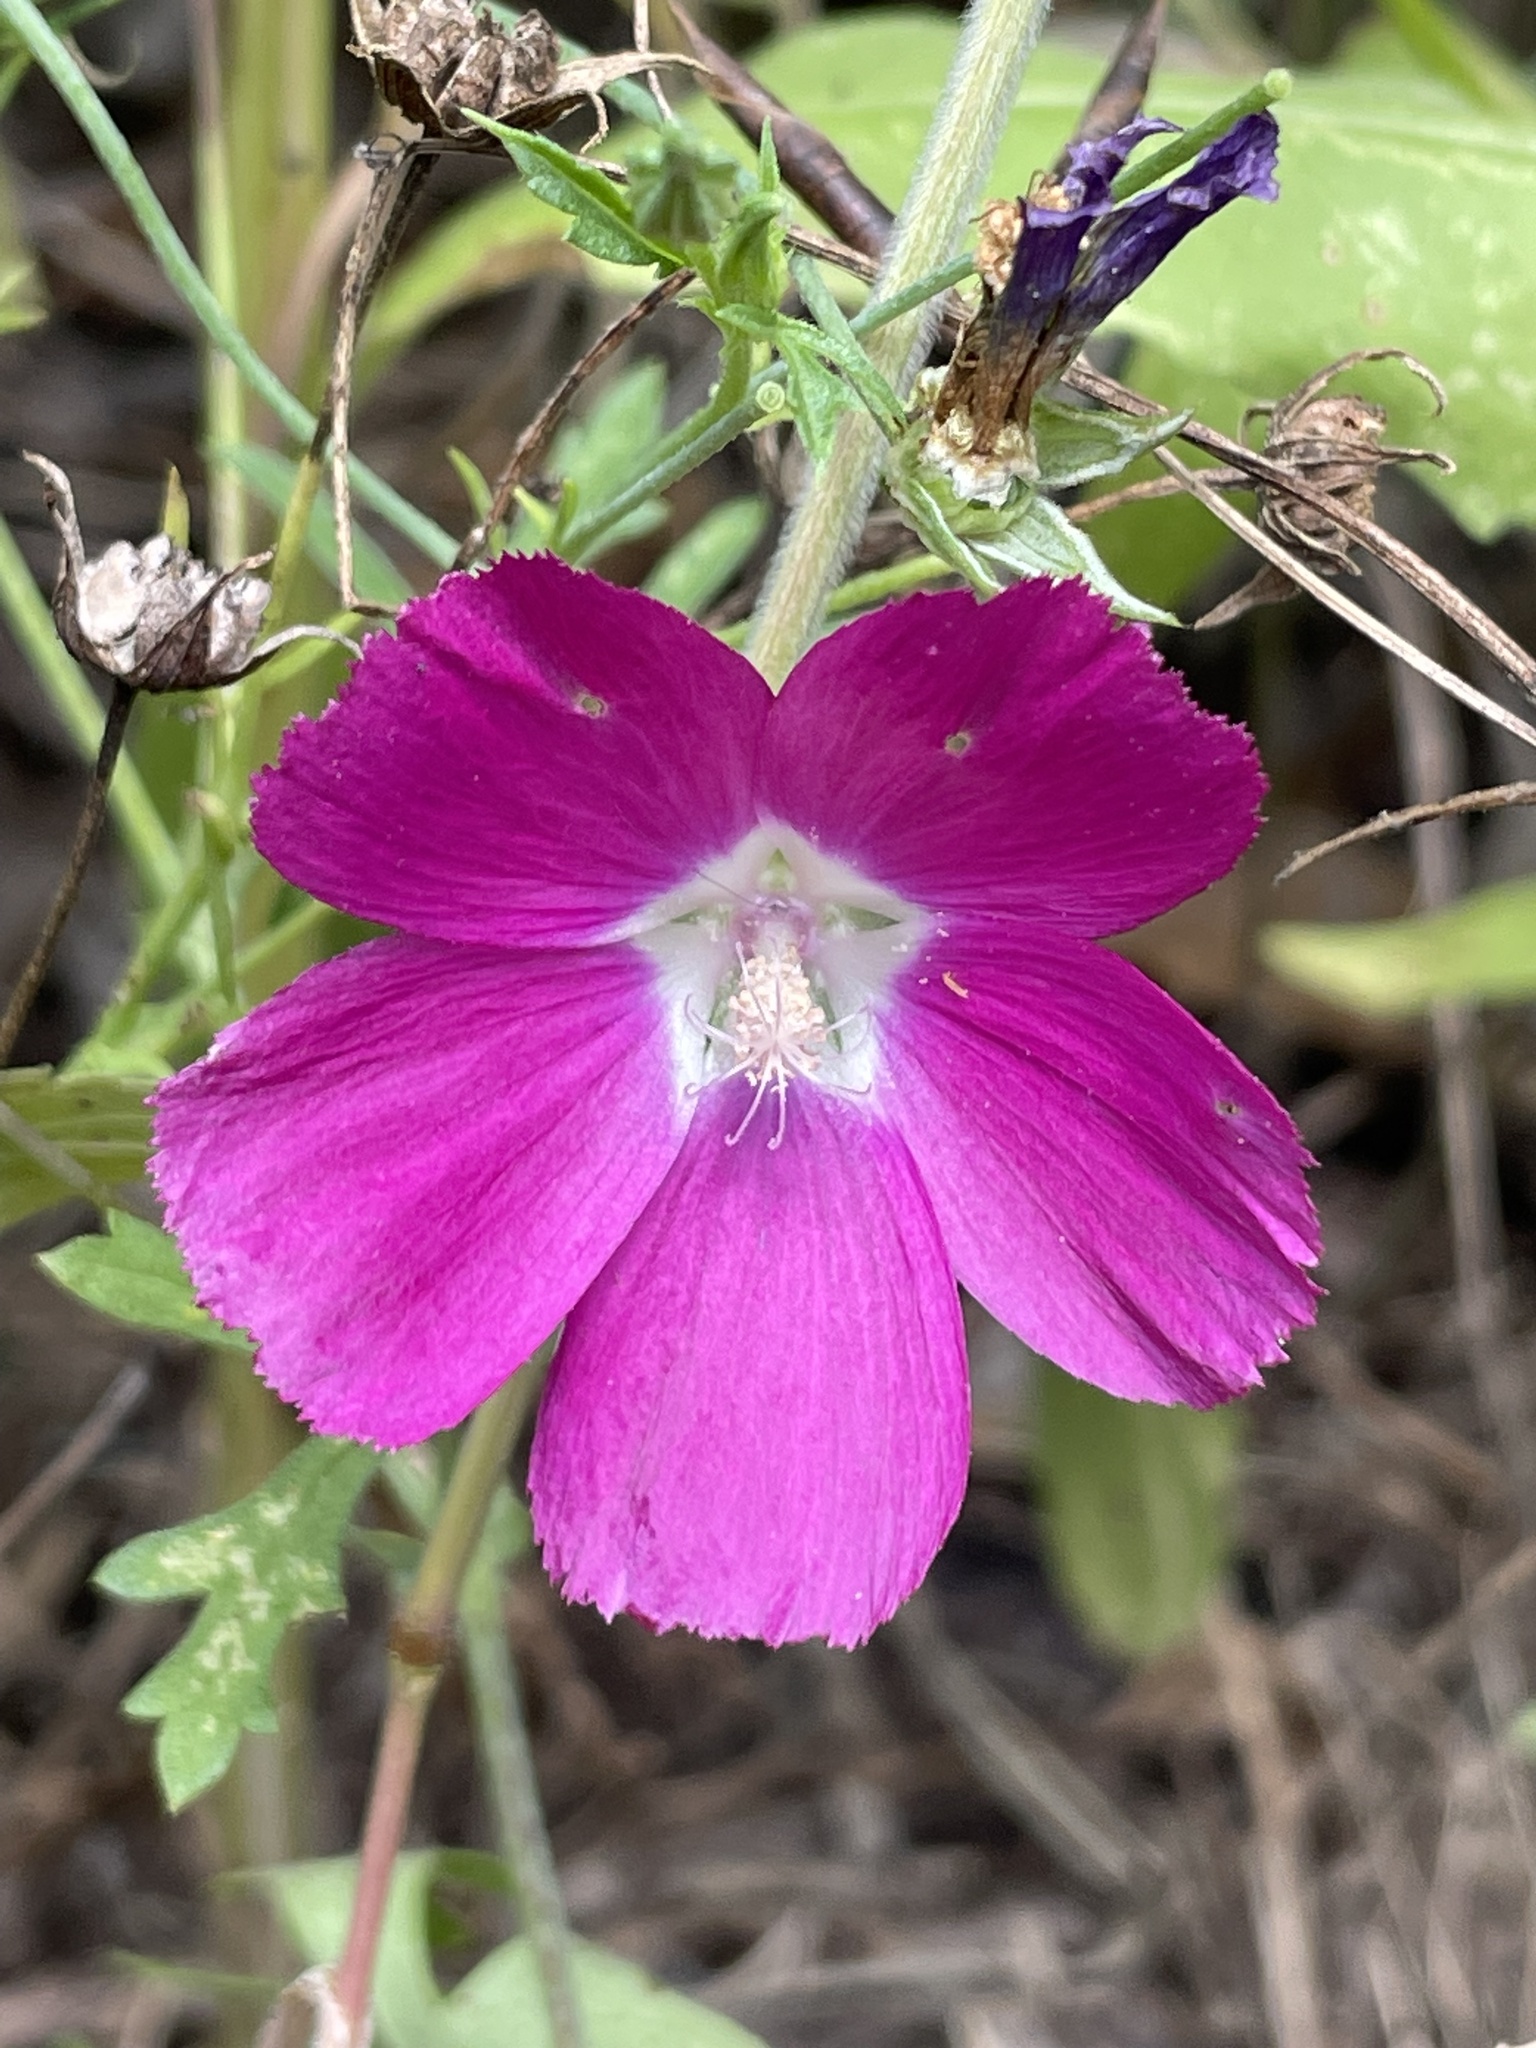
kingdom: Plantae
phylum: Tracheophyta
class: Magnoliopsida
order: Malvales
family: Malvaceae
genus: Callirhoe
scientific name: Callirhoe leiocarpa
